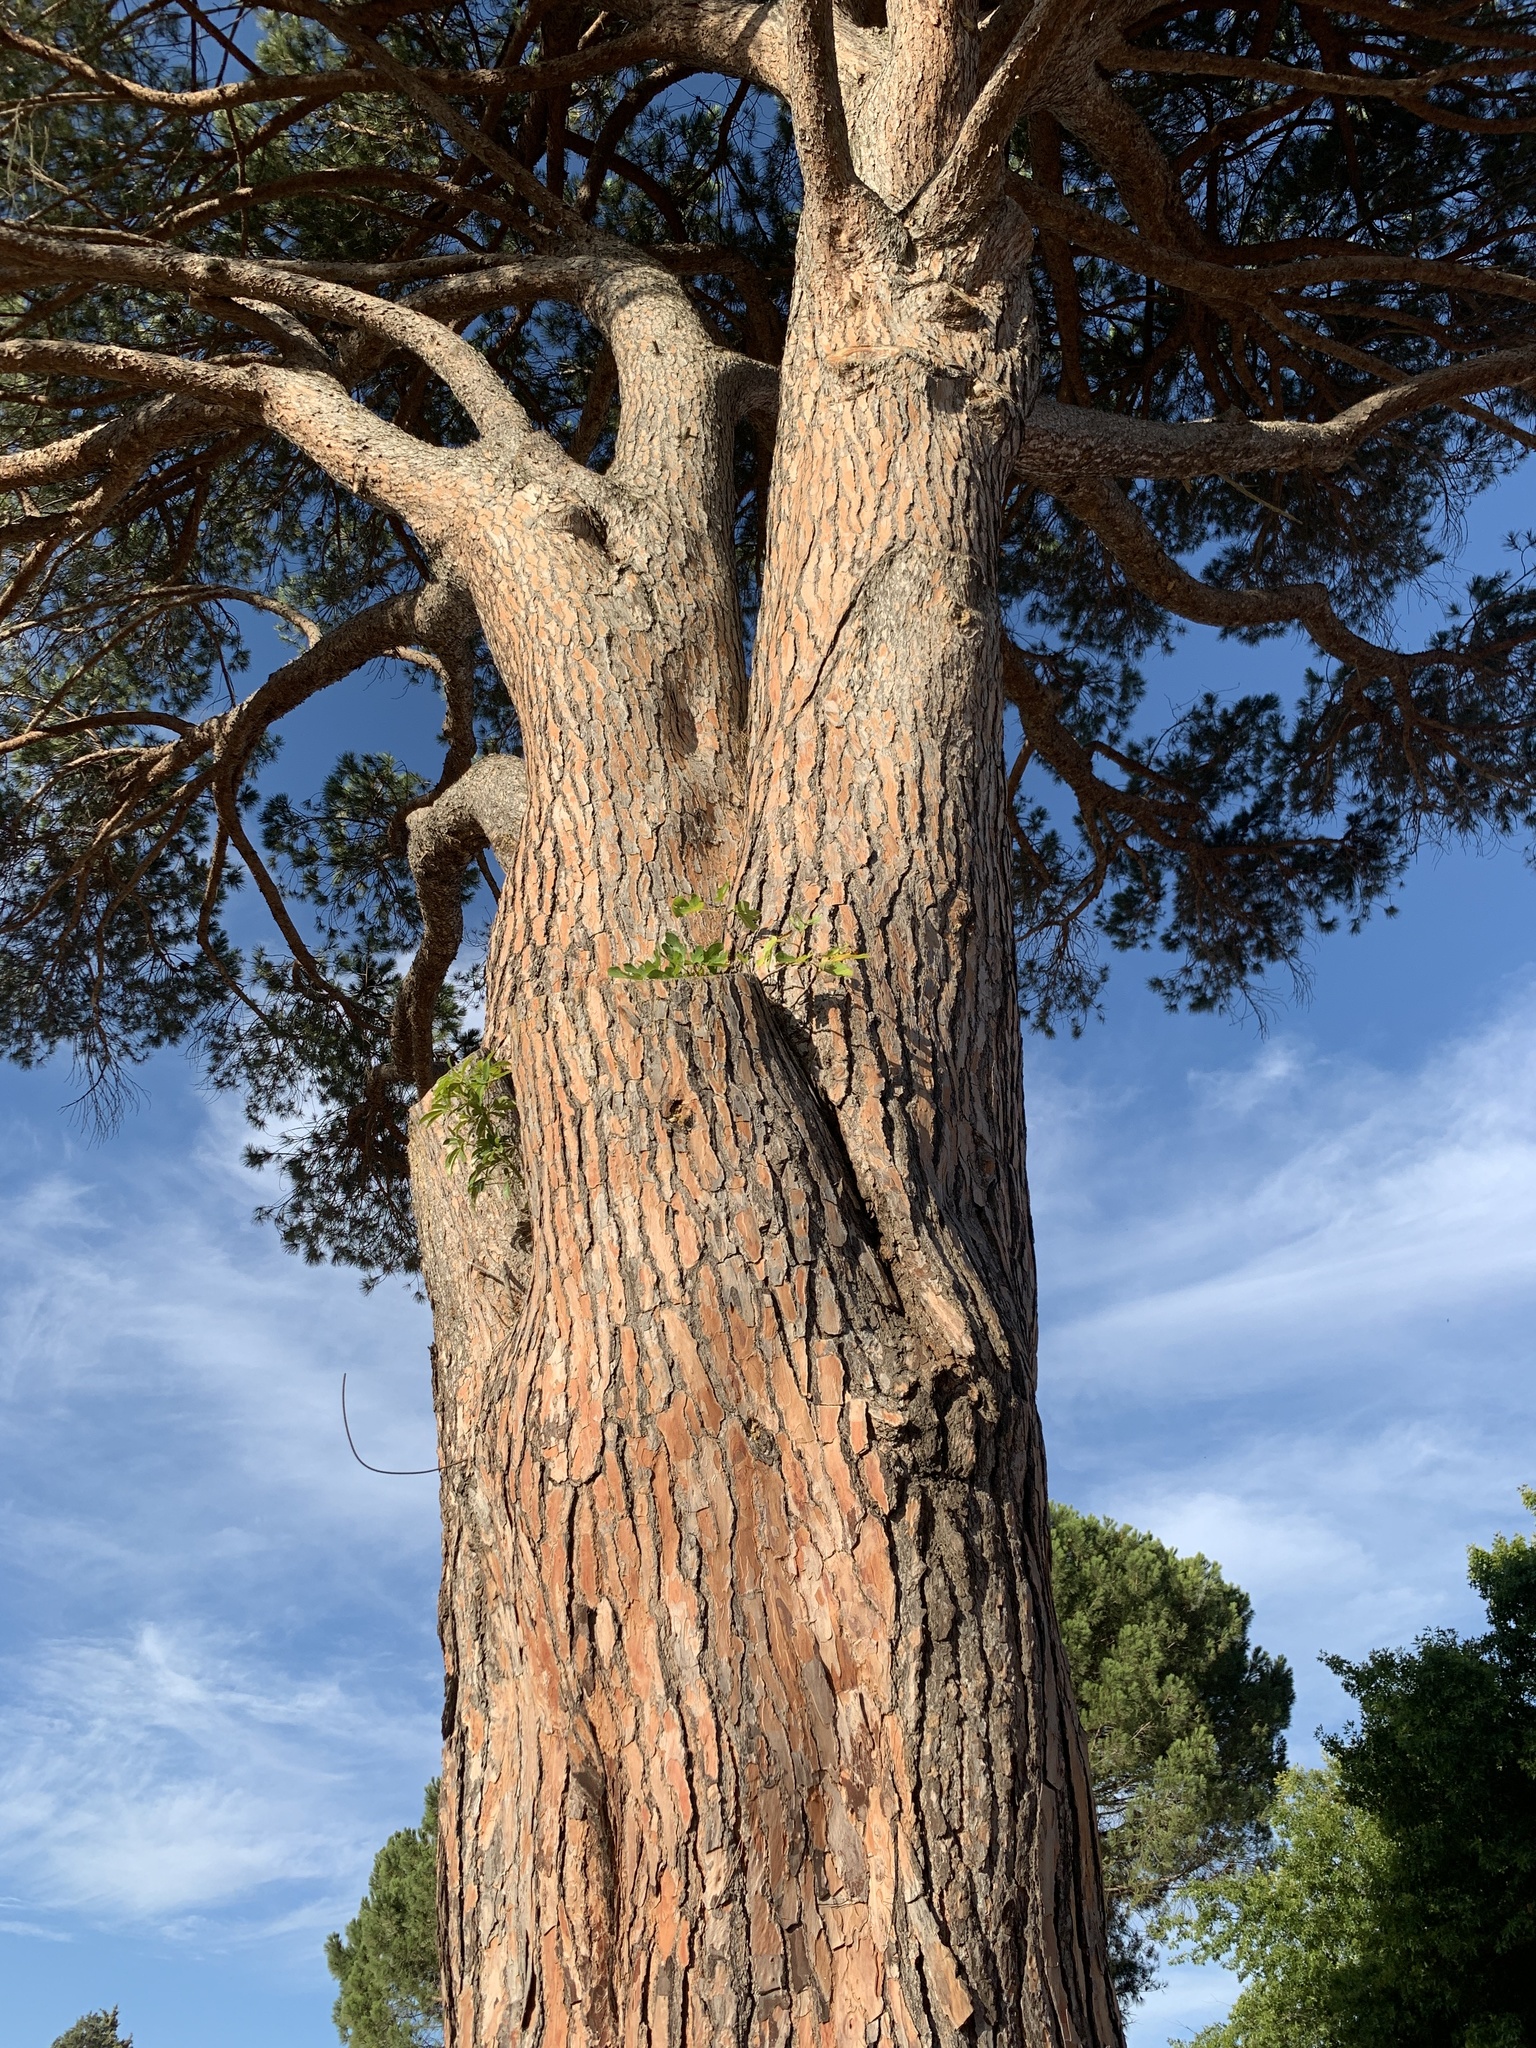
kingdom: Plantae
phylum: Tracheophyta
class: Magnoliopsida
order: Rosales
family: Moraceae
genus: Ficus
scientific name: Ficus carica
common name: Fig
